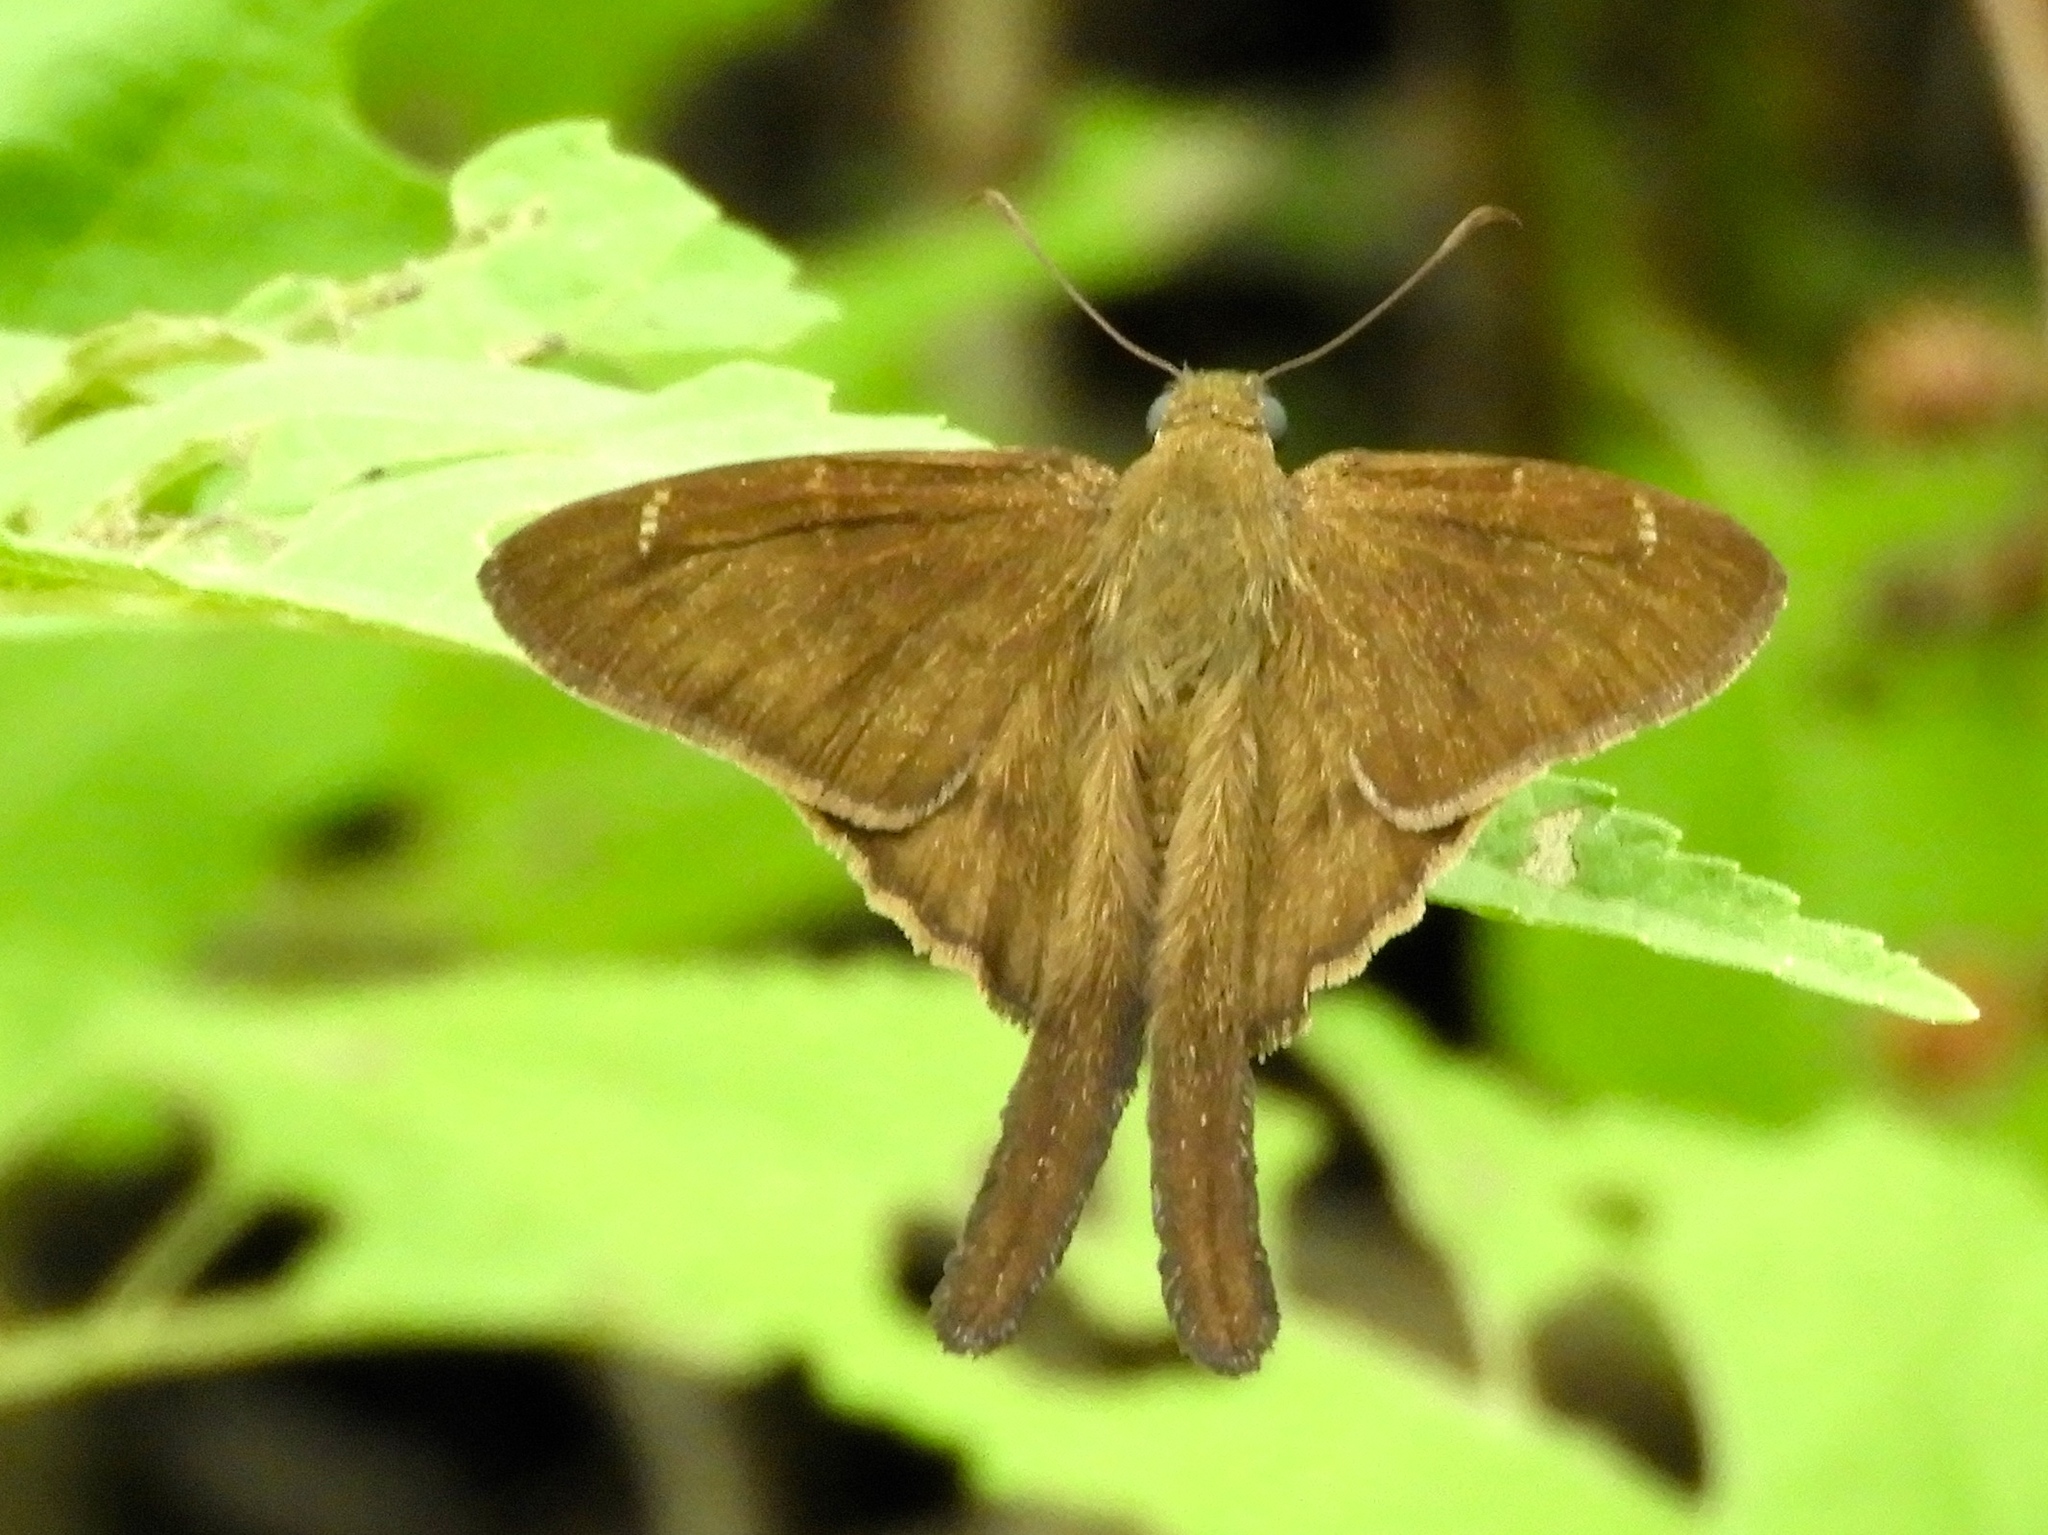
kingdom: Animalia
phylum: Arthropoda
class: Insecta
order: Lepidoptera
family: Hesperiidae
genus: Urbanus
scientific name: Urbanus simplicius
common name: Plain longtail
